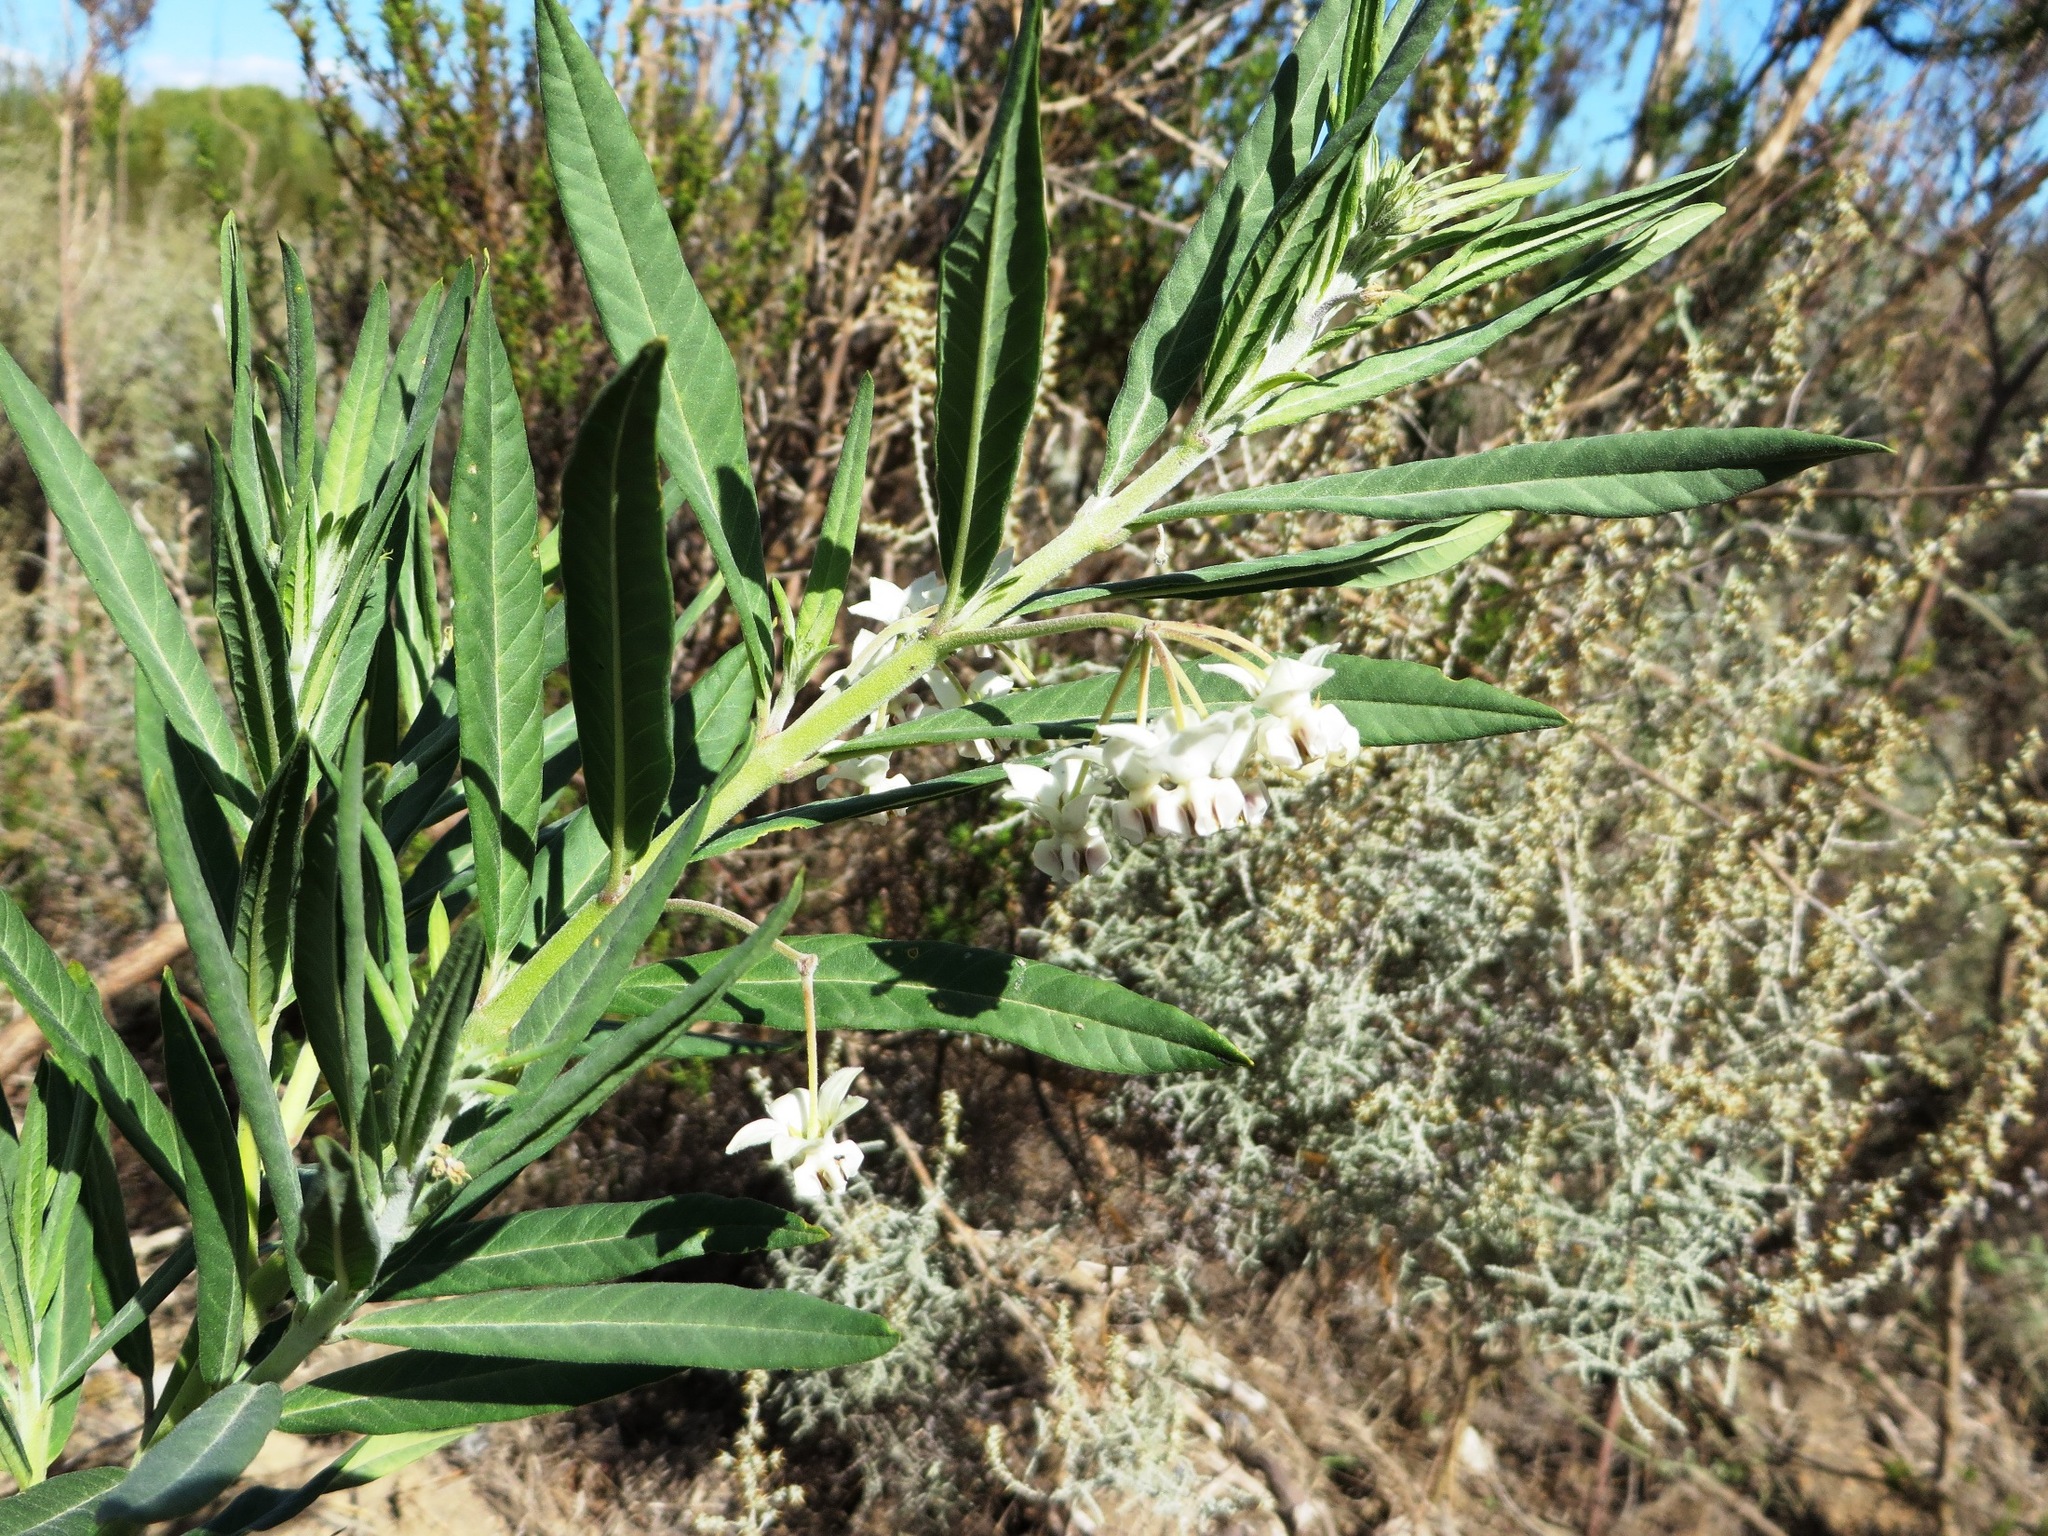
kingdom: Plantae
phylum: Tracheophyta
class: Magnoliopsida
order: Gentianales
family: Apocynaceae
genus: Gomphocarpus
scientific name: Gomphocarpus physocarpus
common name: Balloon cotton bush
